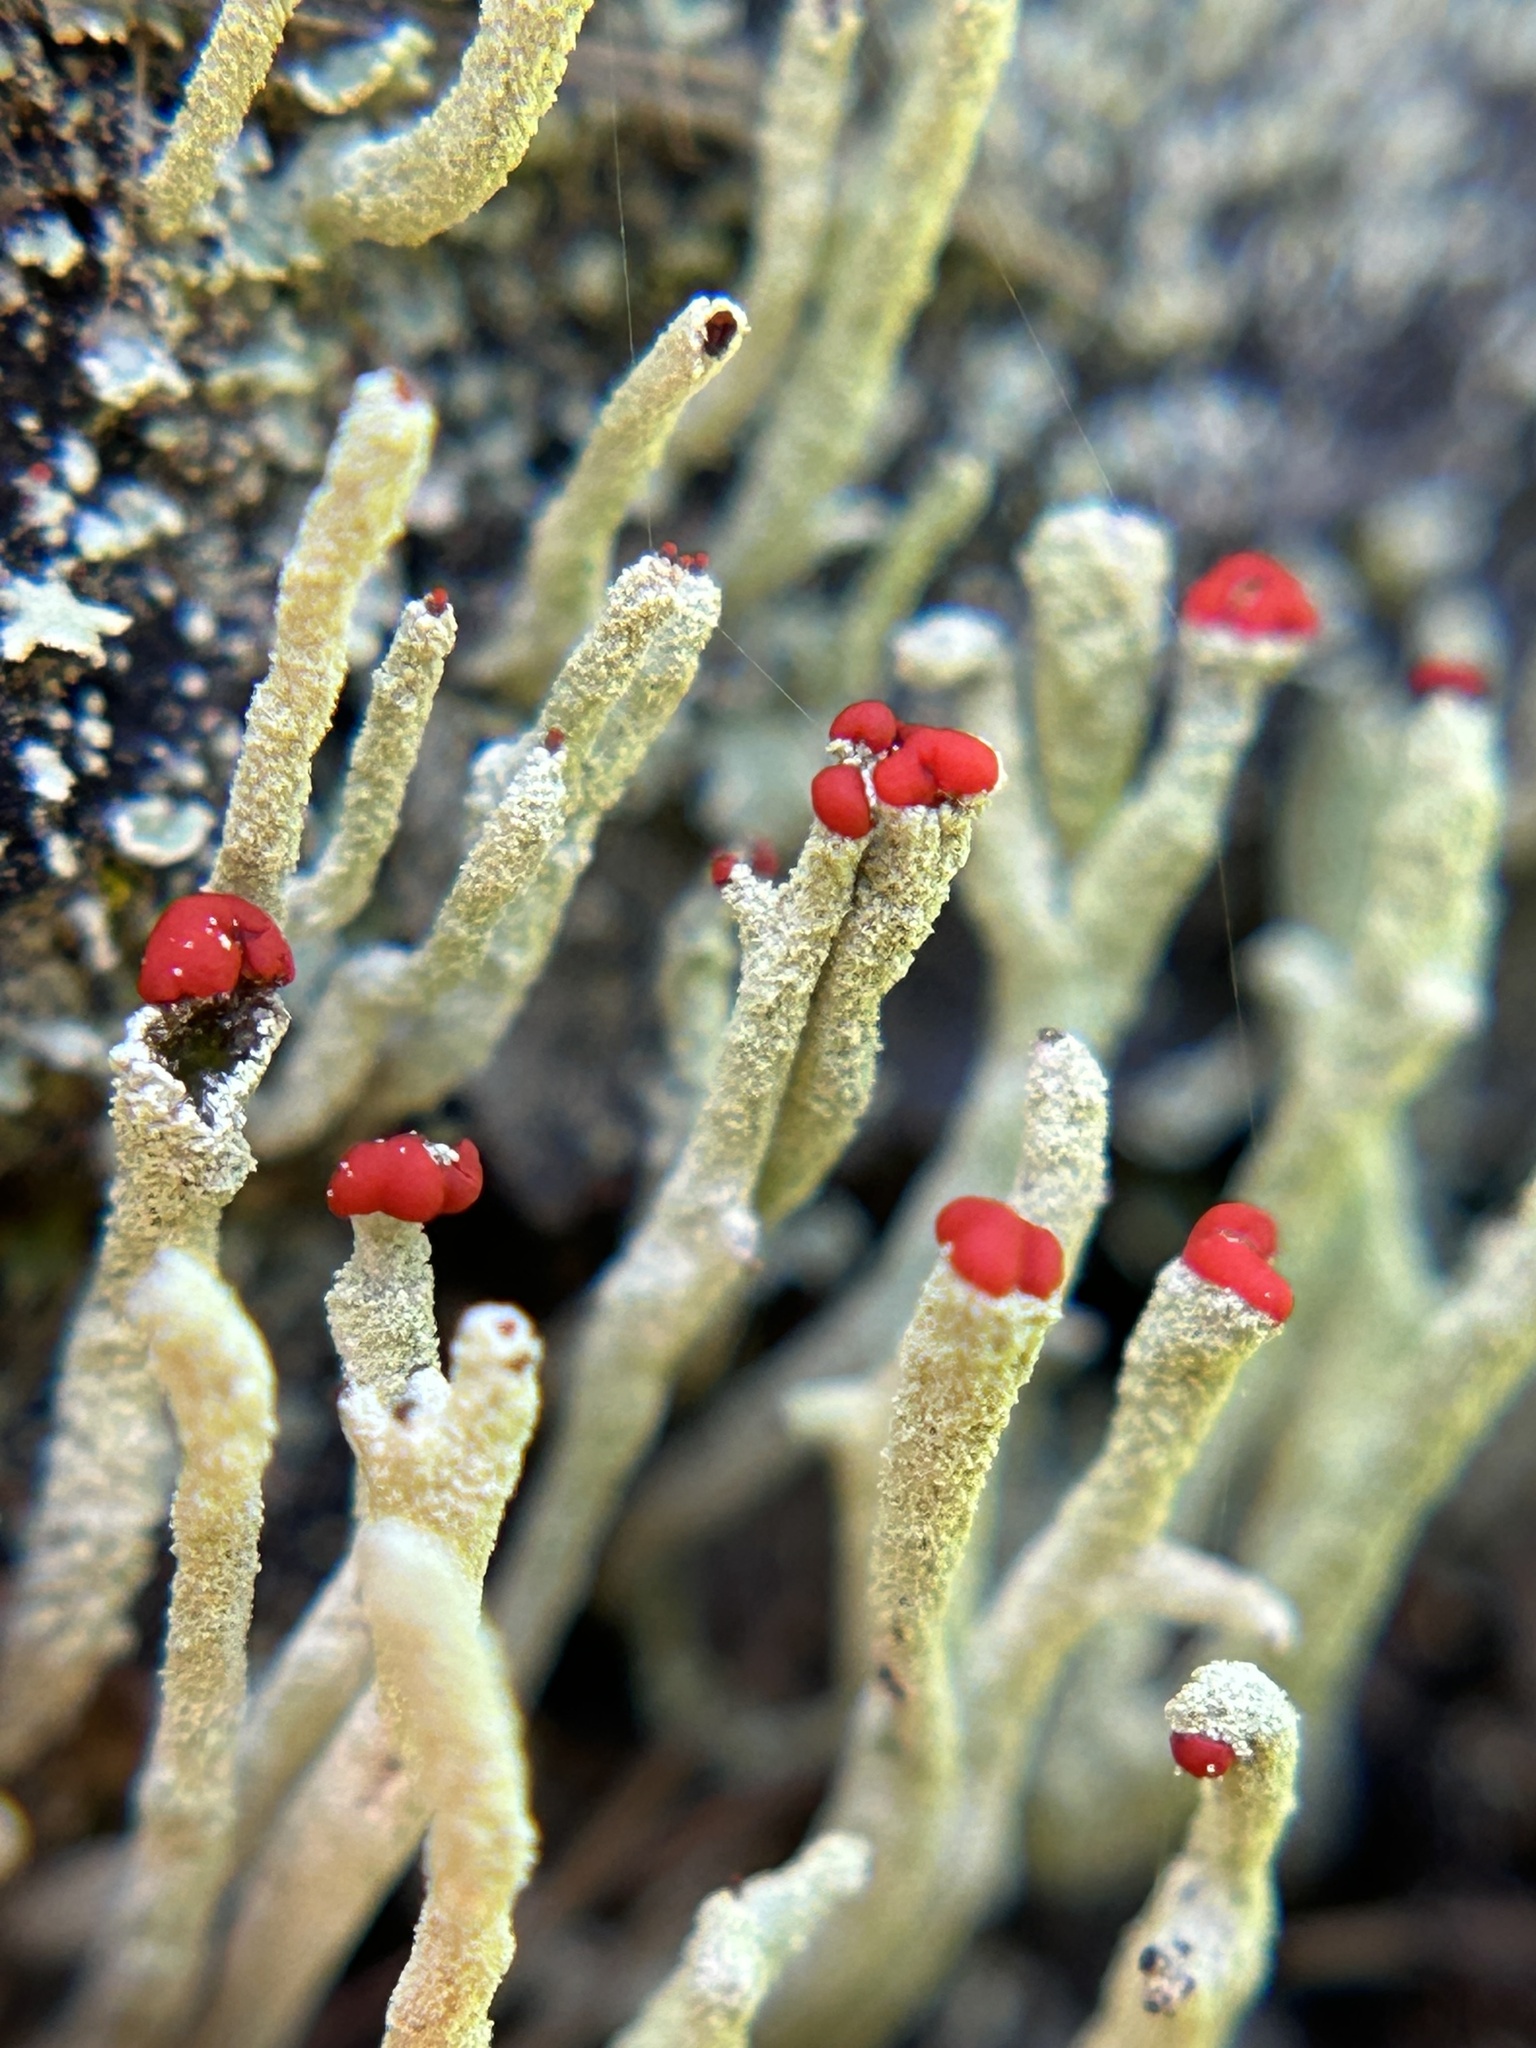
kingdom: Fungi
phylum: Ascomycota
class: Lecanoromycetes
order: Lecanorales
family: Cladoniaceae
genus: Cladonia
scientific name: Cladonia macilenta
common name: Lipstick powderhorn
